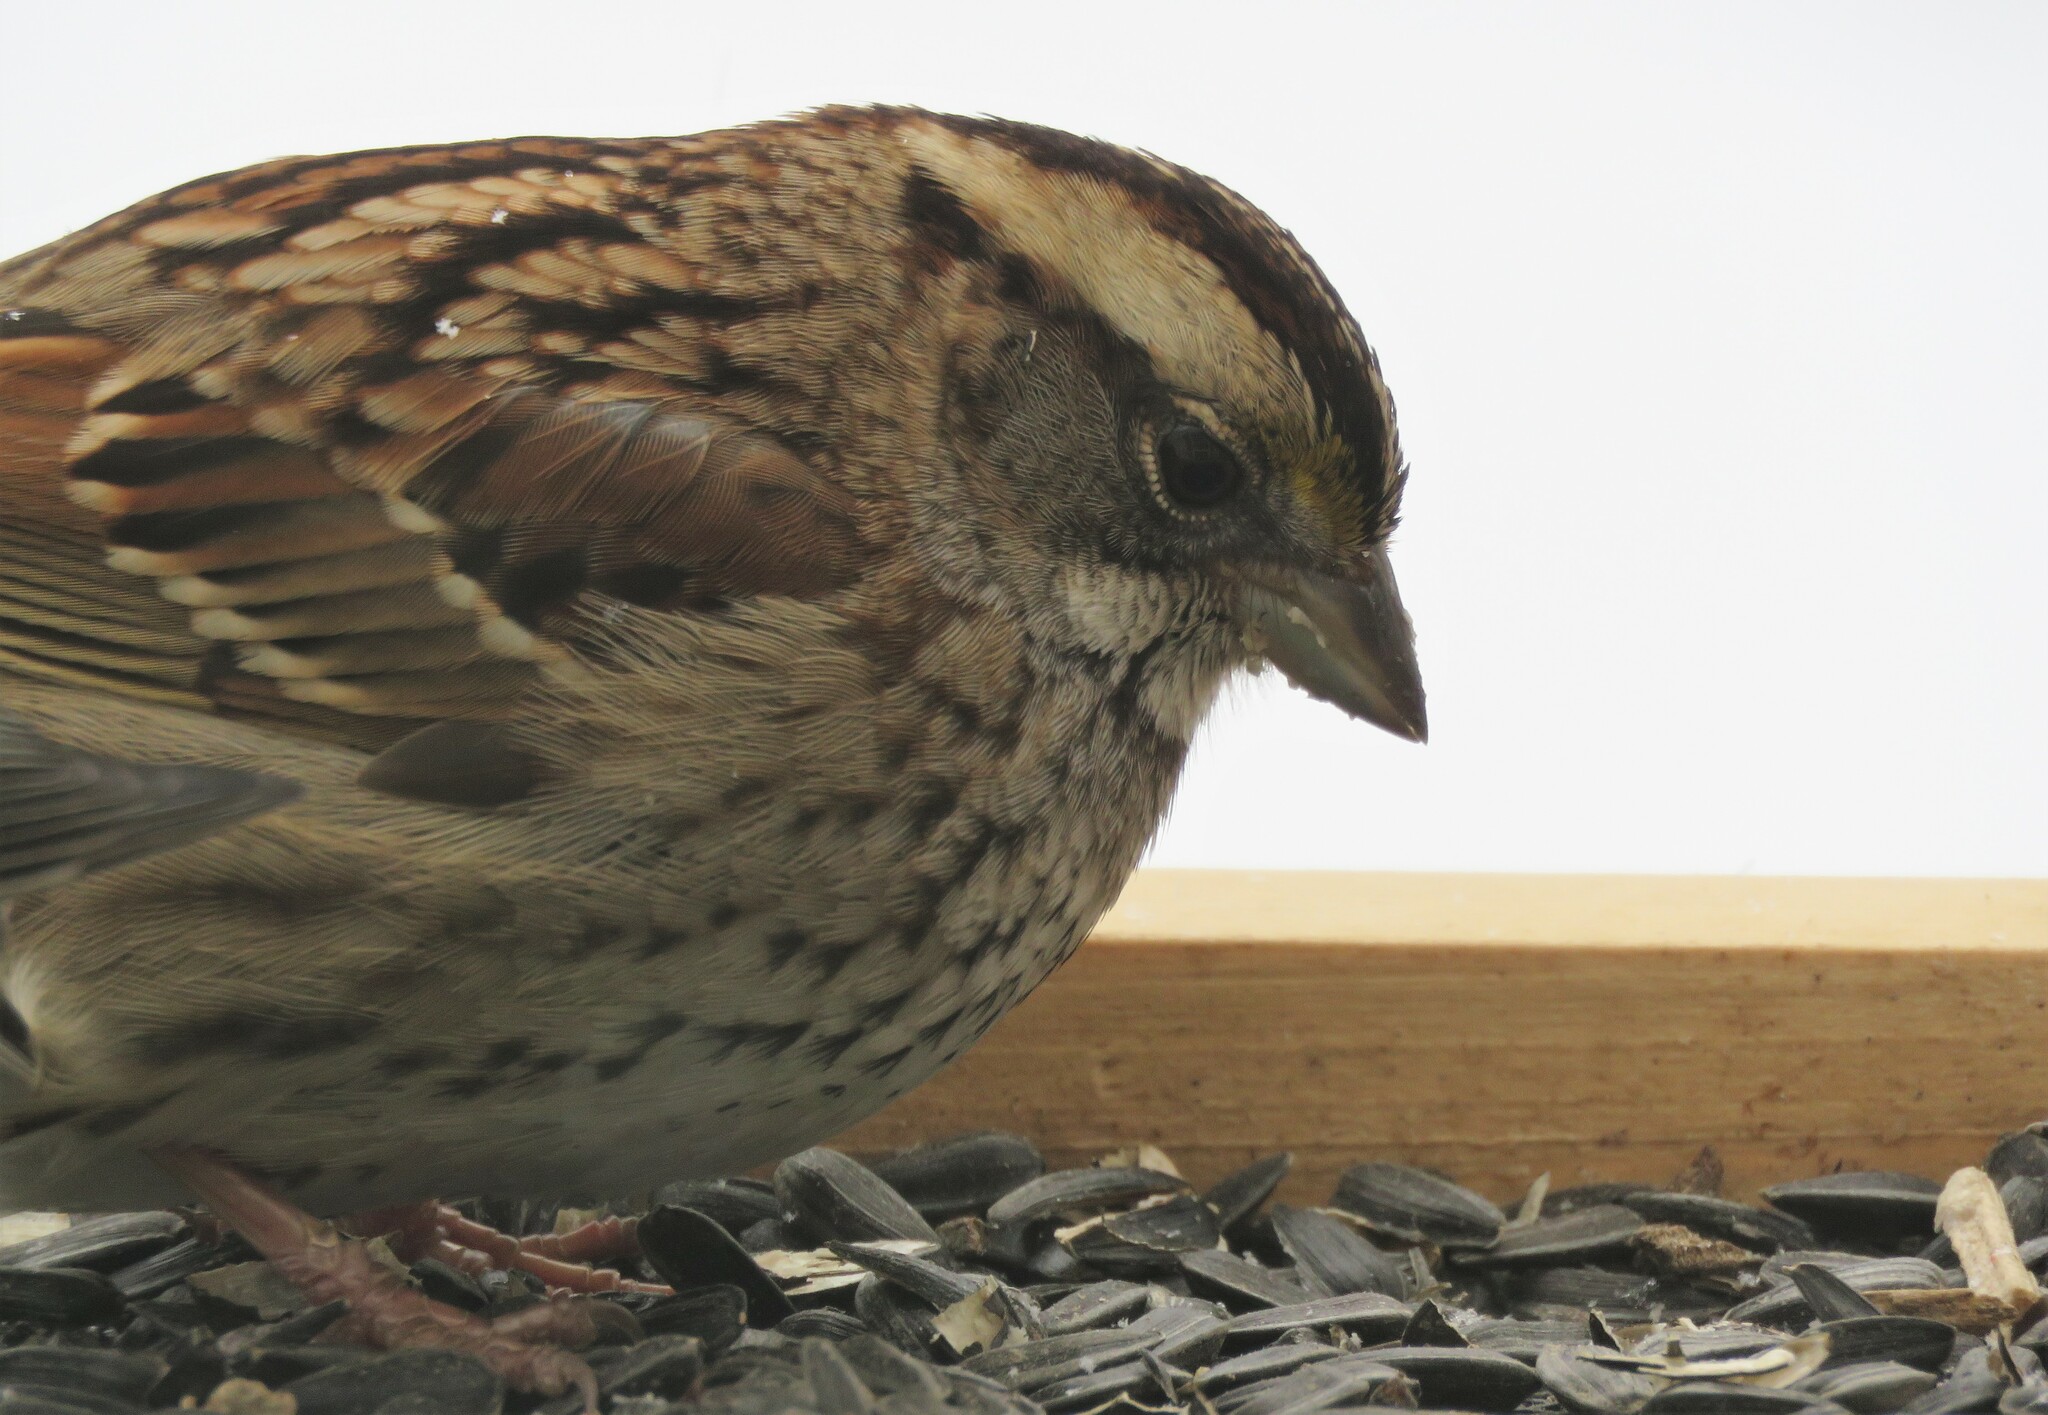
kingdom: Animalia
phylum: Chordata
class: Aves
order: Passeriformes
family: Passerellidae
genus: Zonotrichia
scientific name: Zonotrichia albicollis
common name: White-throated sparrow
